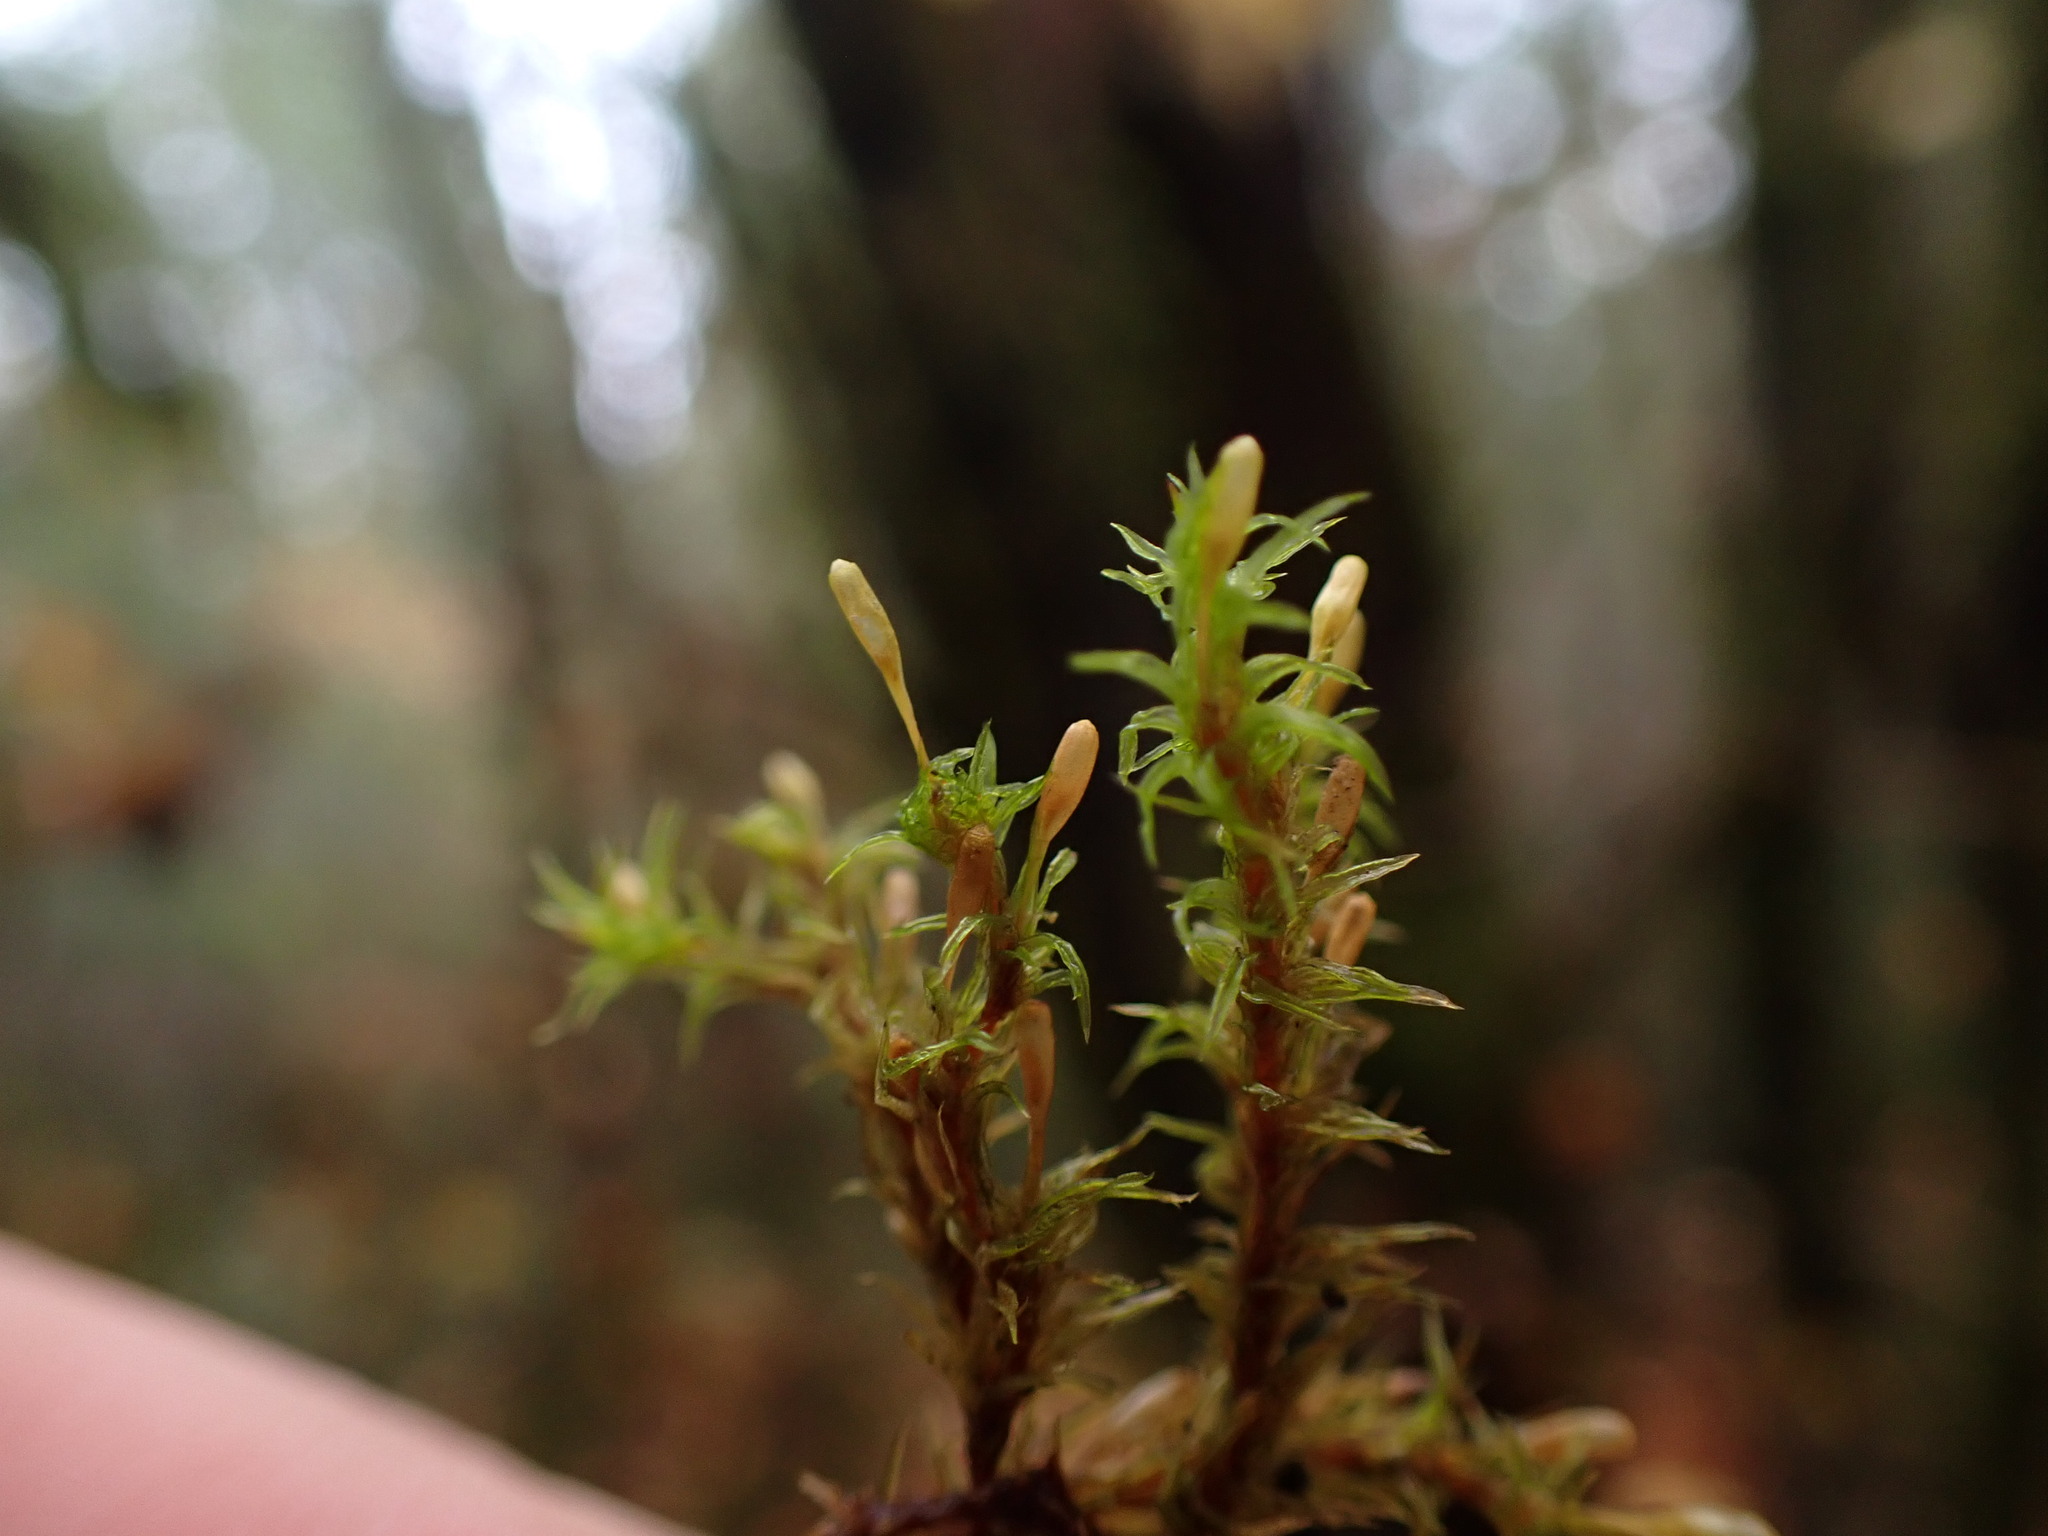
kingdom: Plantae
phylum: Bryophyta
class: Bryopsida
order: Orthotrichales
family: Orthotrichaceae
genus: Pulvigera
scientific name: Pulvigera pringlei
